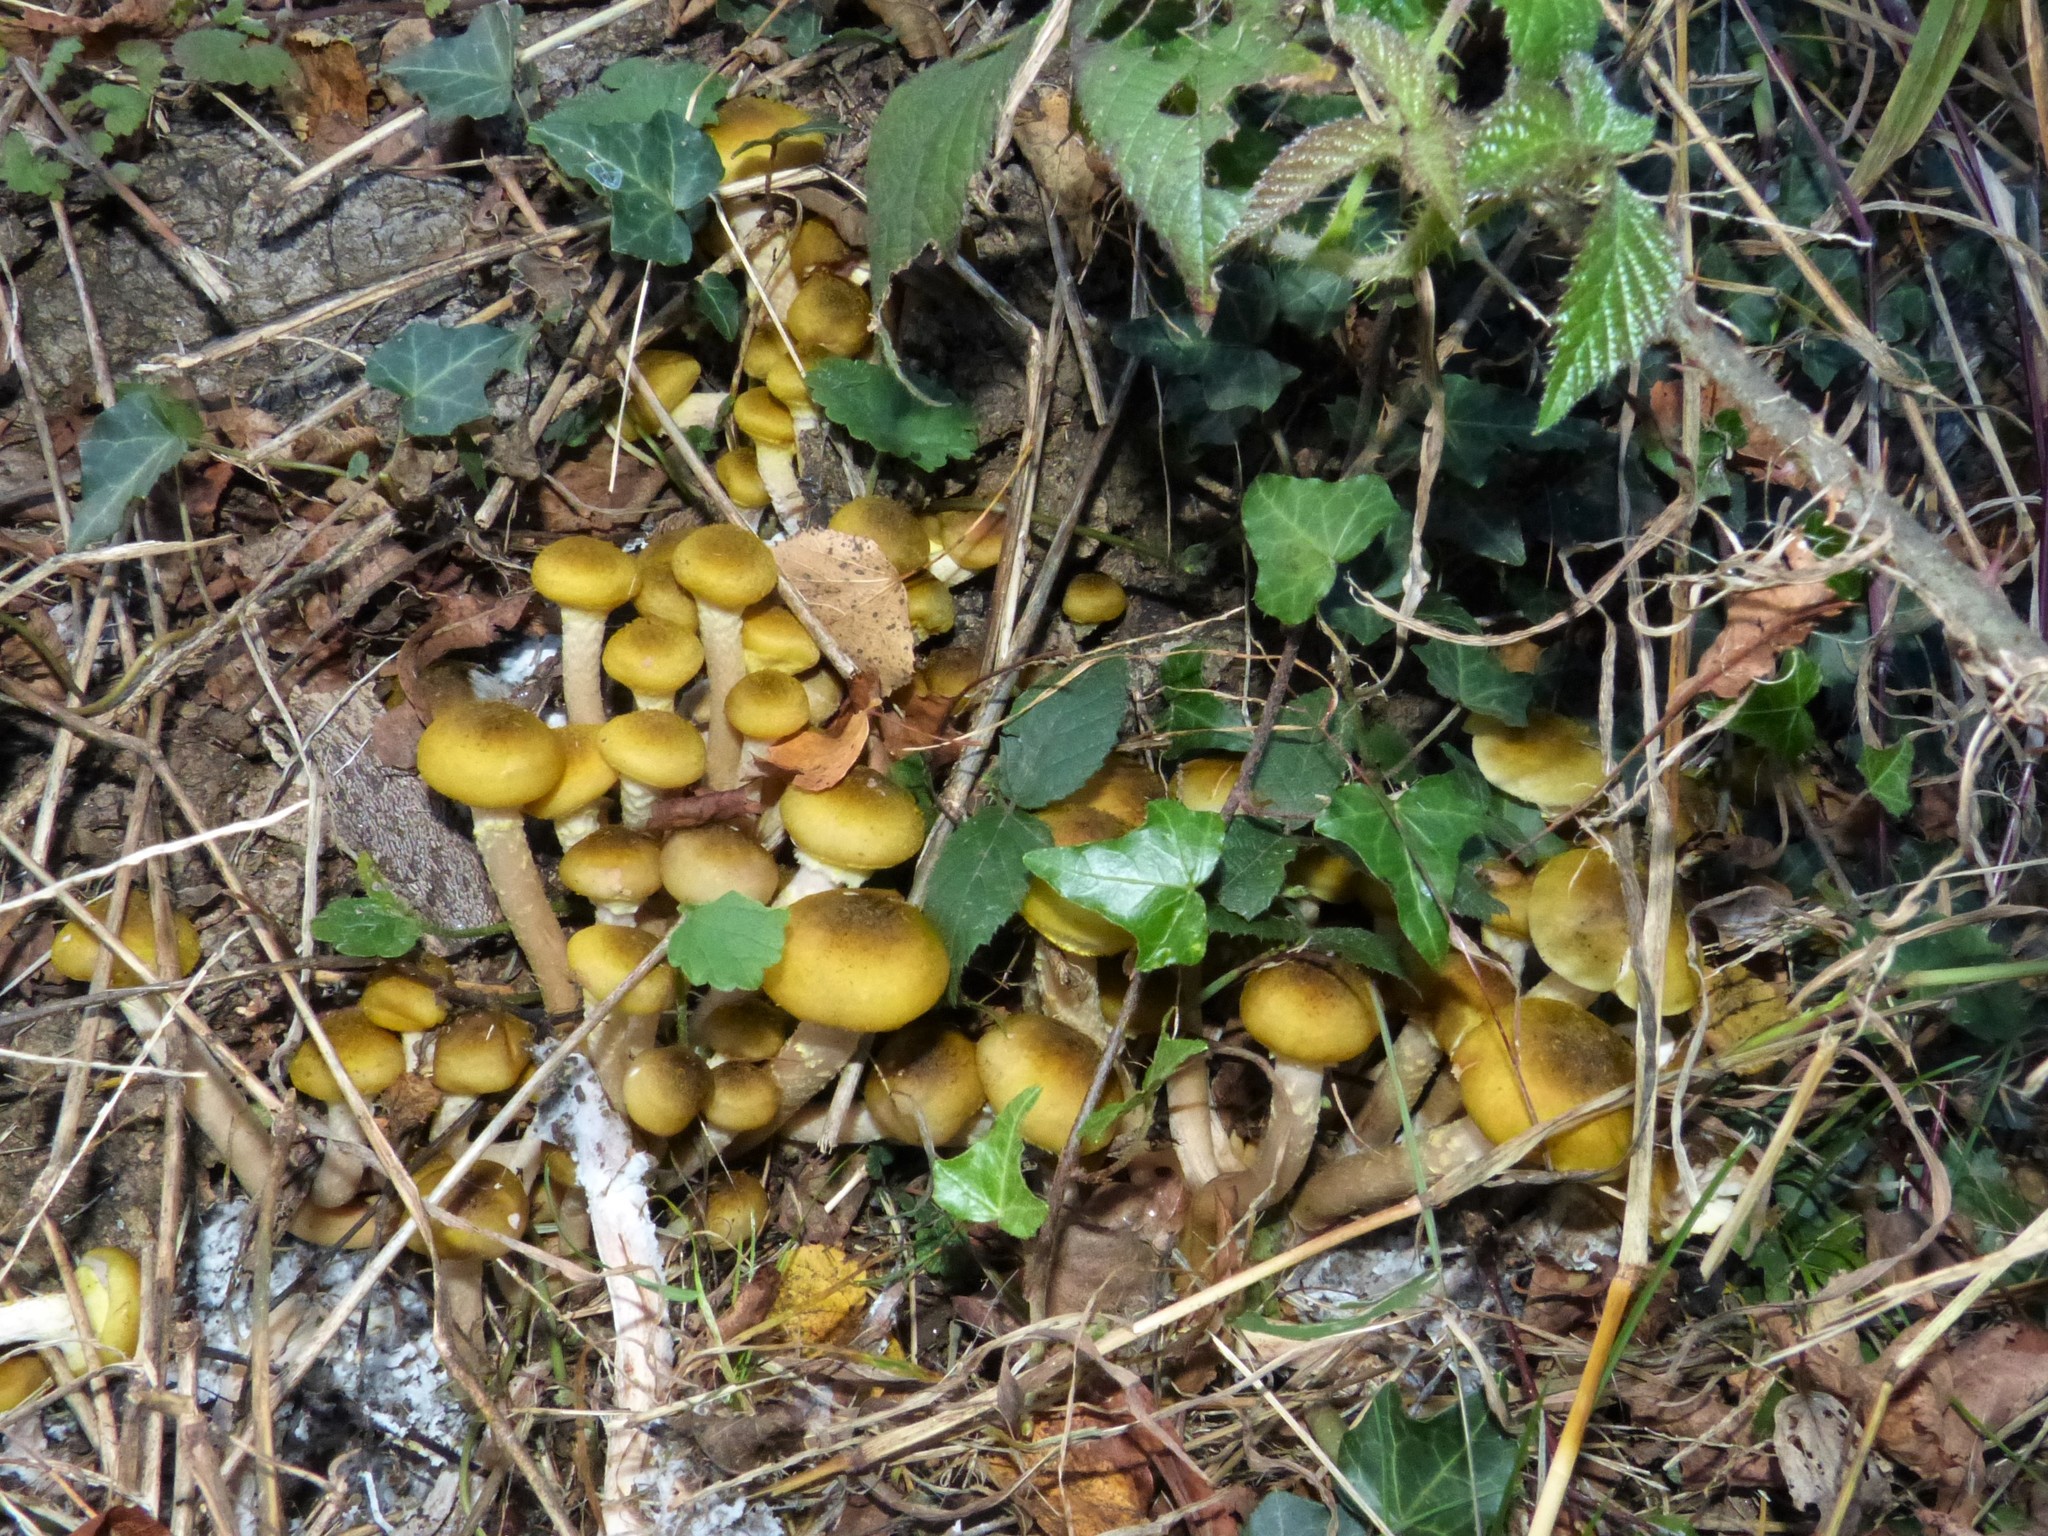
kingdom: Fungi
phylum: Basidiomycota
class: Agaricomycetes
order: Agaricales
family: Physalacriaceae
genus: Armillaria
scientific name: Armillaria mellea
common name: Honey fungus
